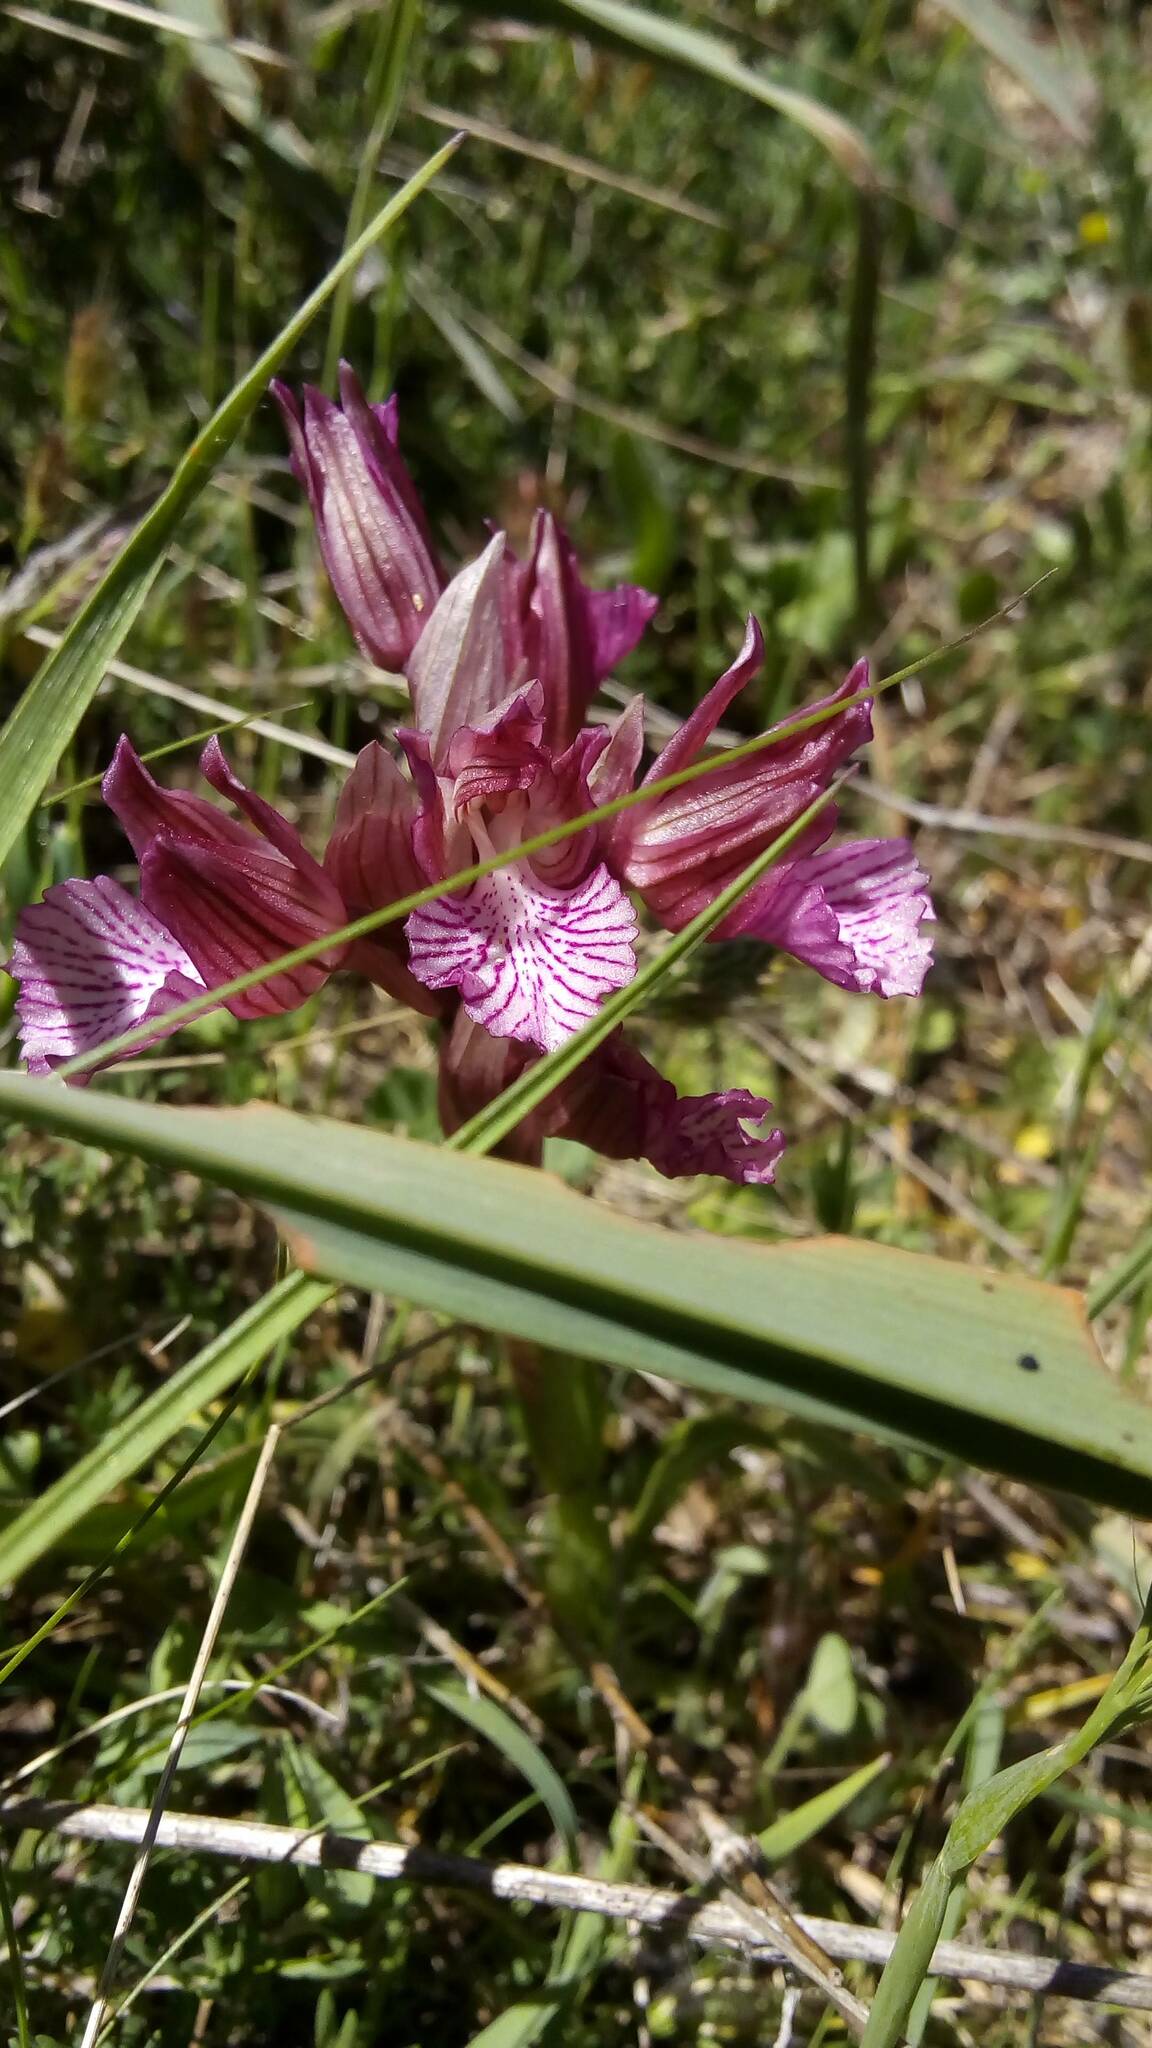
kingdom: Plantae
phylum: Tracheophyta
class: Liliopsida
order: Asparagales
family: Orchidaceae
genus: Anacamptis
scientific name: Anacamptis papilionacea
